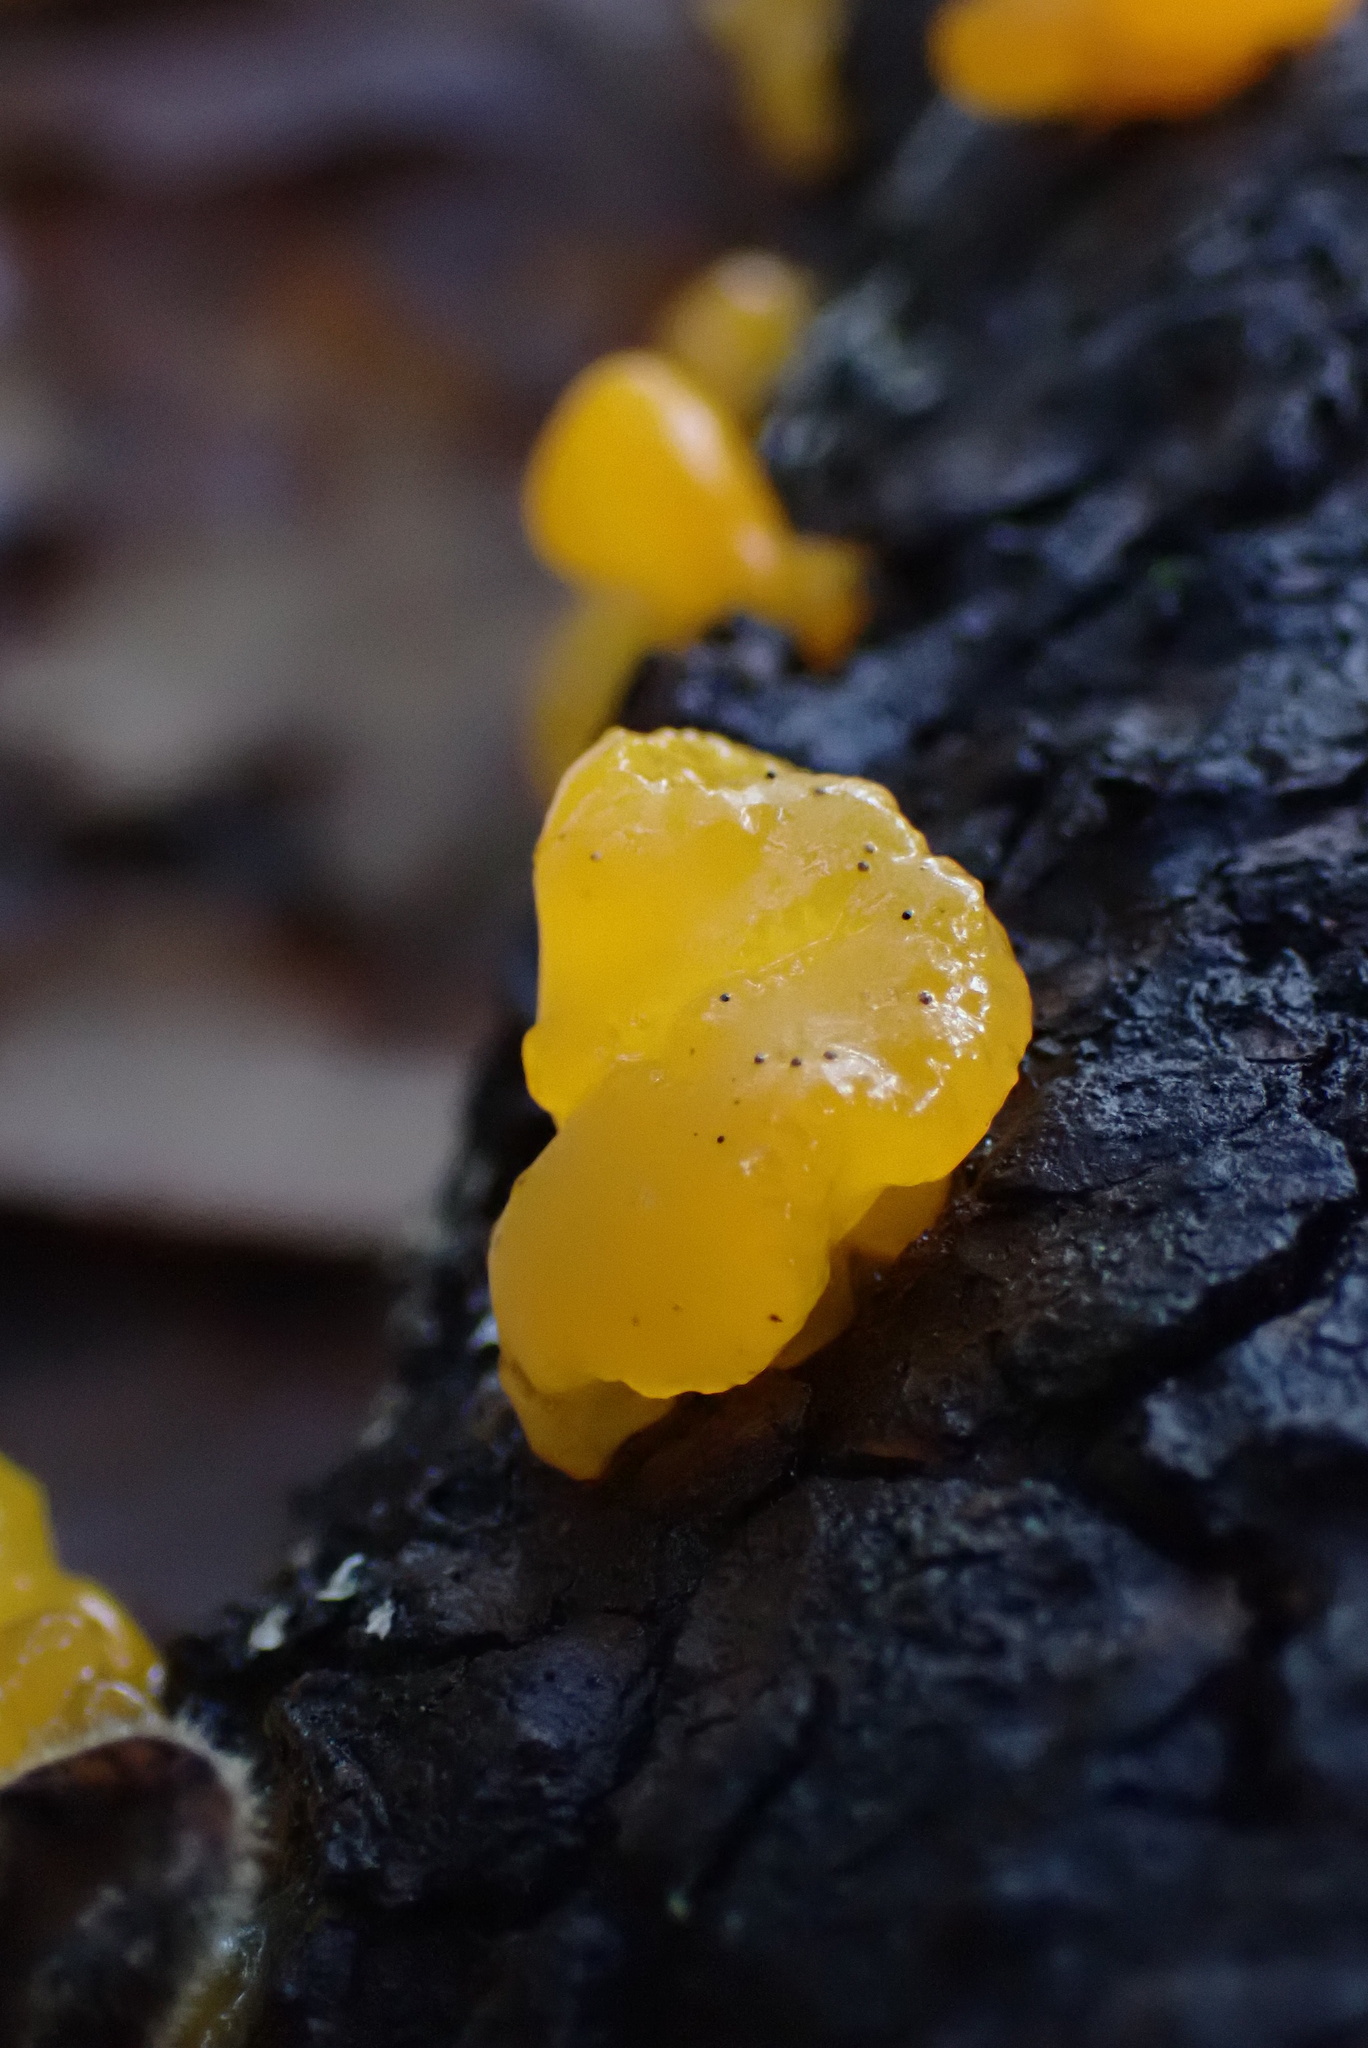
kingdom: Fungi
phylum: Basidiomycota
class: Dacrymycetes
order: Dacrymycetales
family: Dacrymycetaceae
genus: Dacrymyces
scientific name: Dacrymyces chrysospermus
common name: Orange jelly spot
